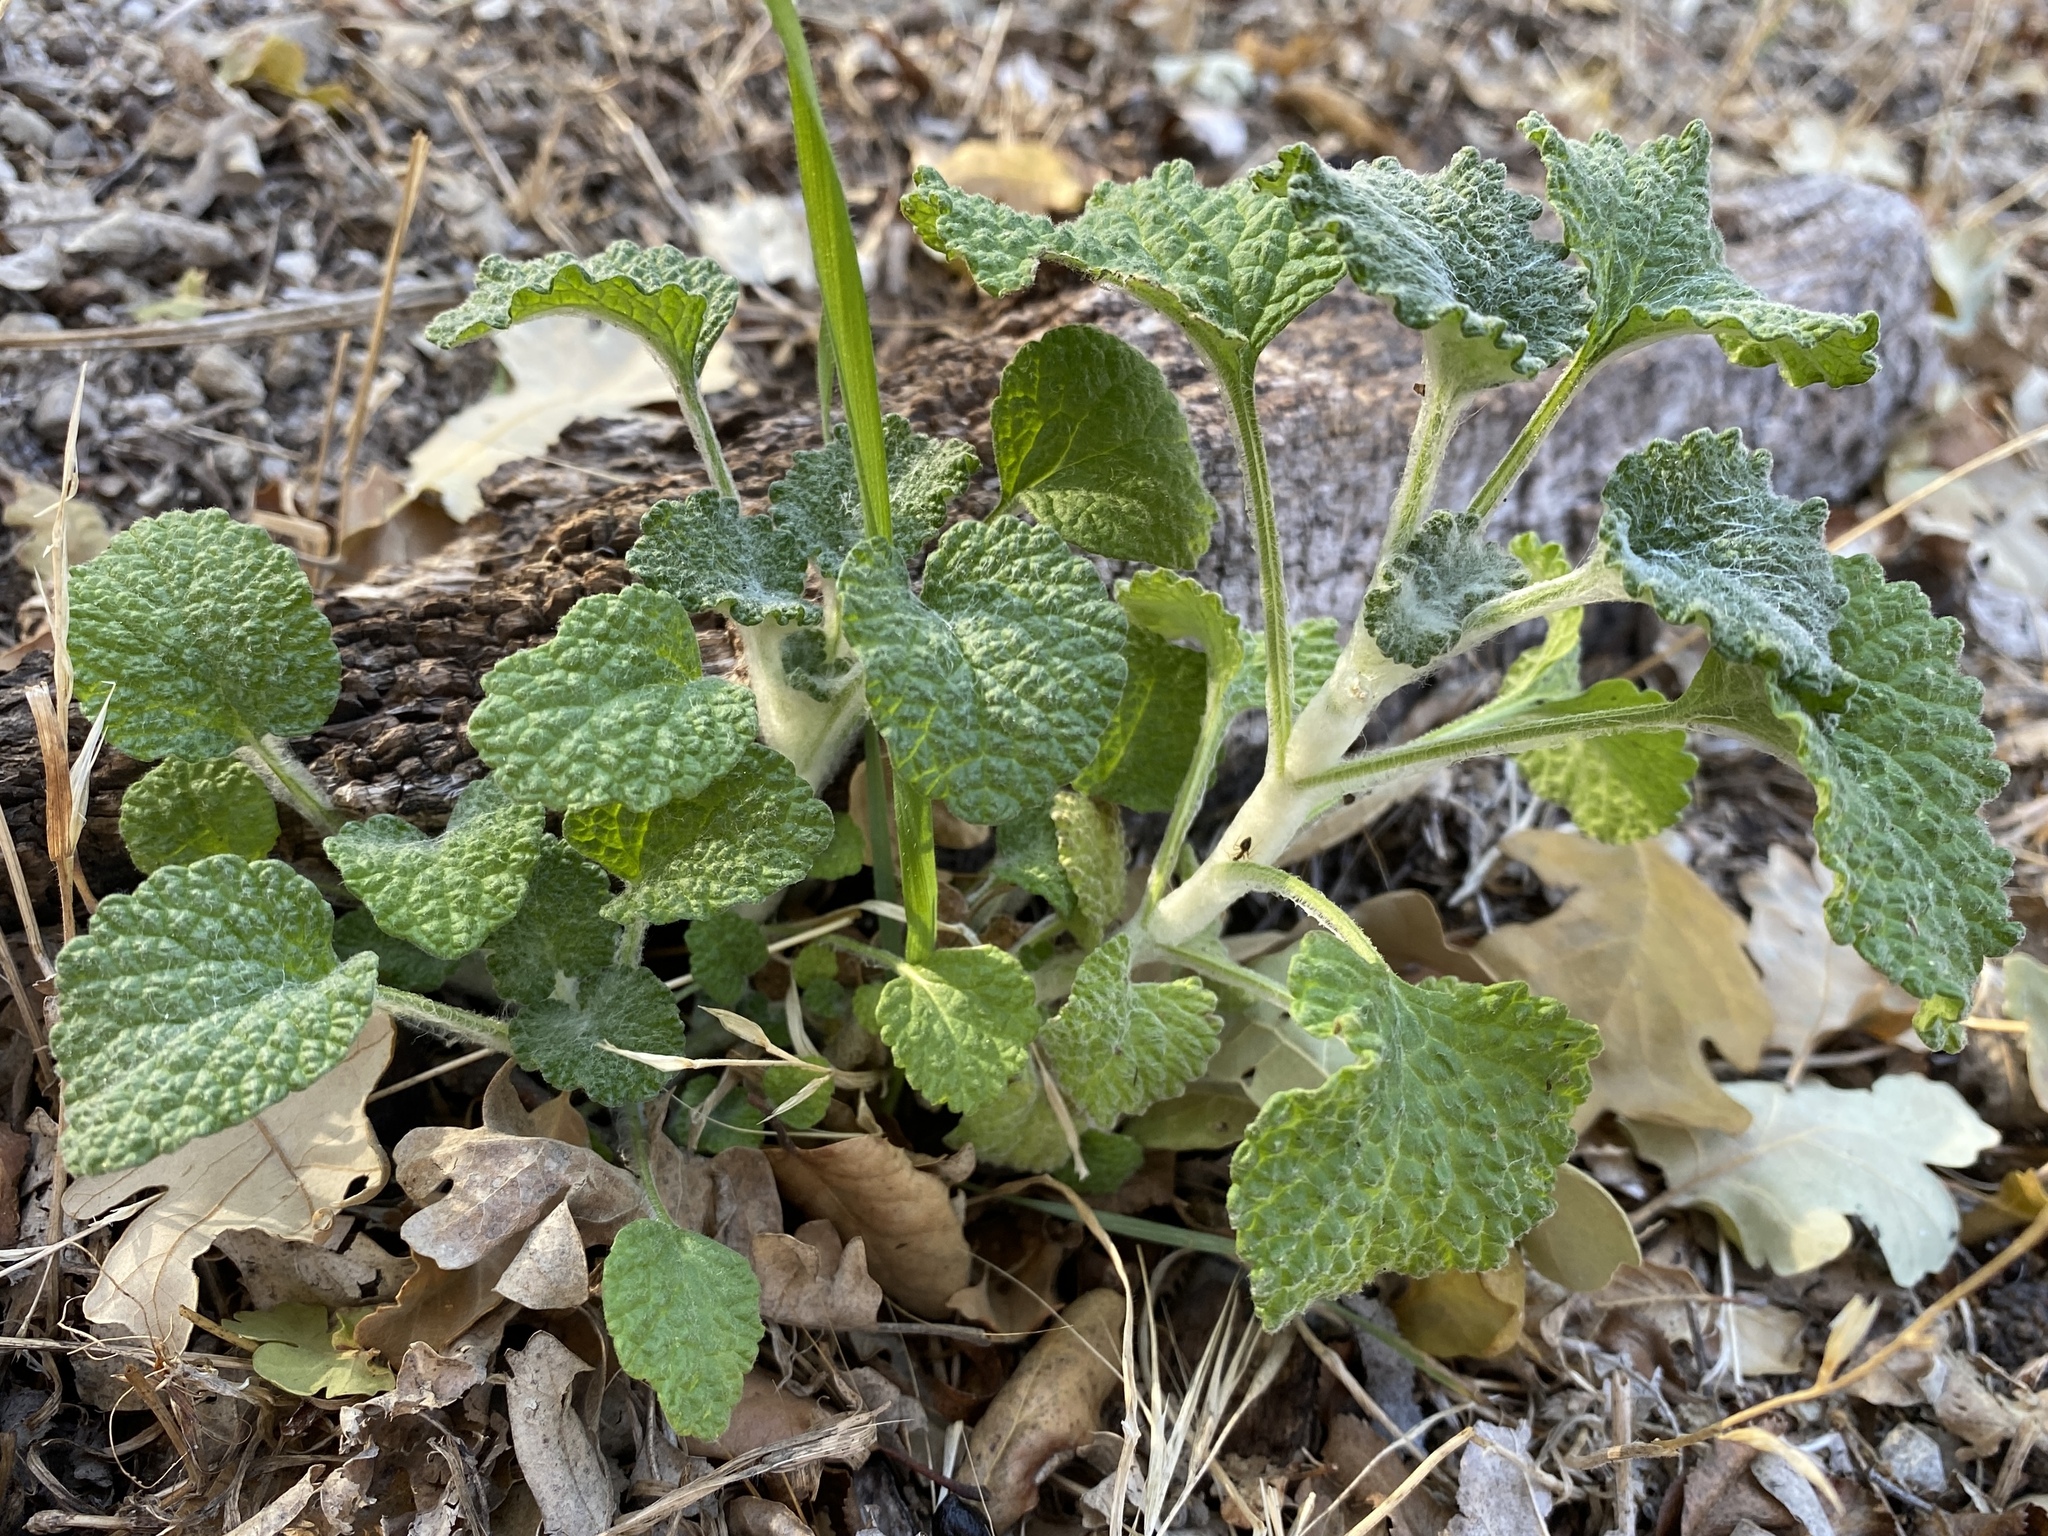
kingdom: Plantae
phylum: Tracheophyta
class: Magnoliopsida
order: Lamiales
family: Lamiaceae
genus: Marrubium
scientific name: Marrubium vulgare
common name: Horehound
